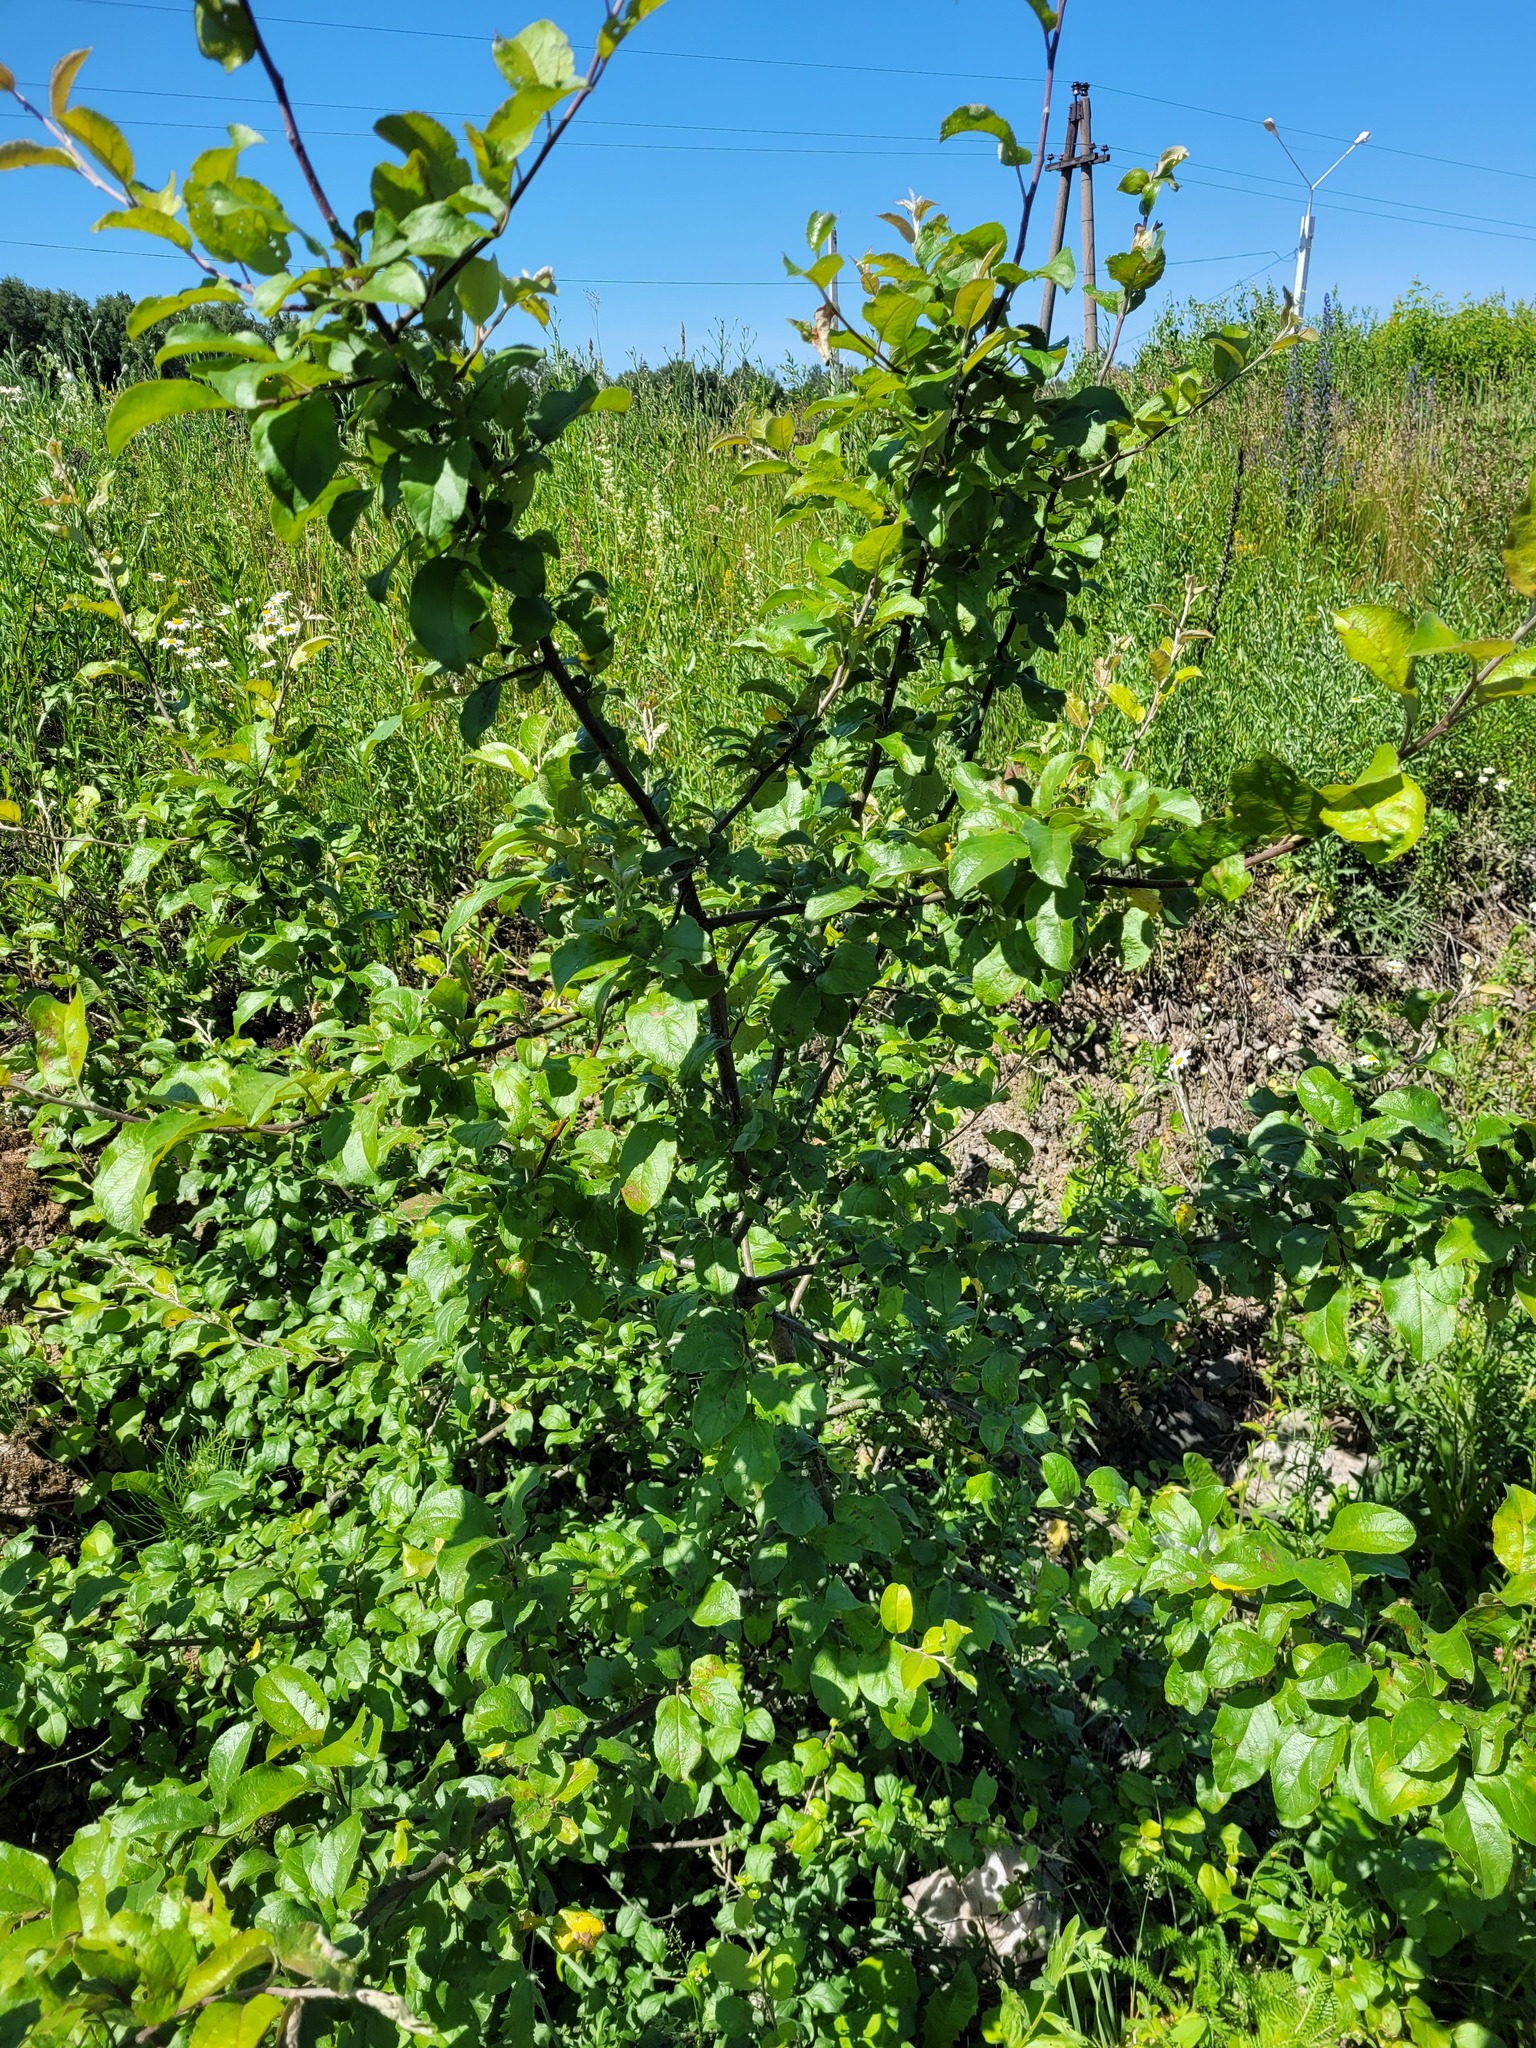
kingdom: Plantae
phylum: Tracheophyta
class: Magnoliopsida
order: Rosales
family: Rosaceae
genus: Malus
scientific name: Malus domestica
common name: Apple
